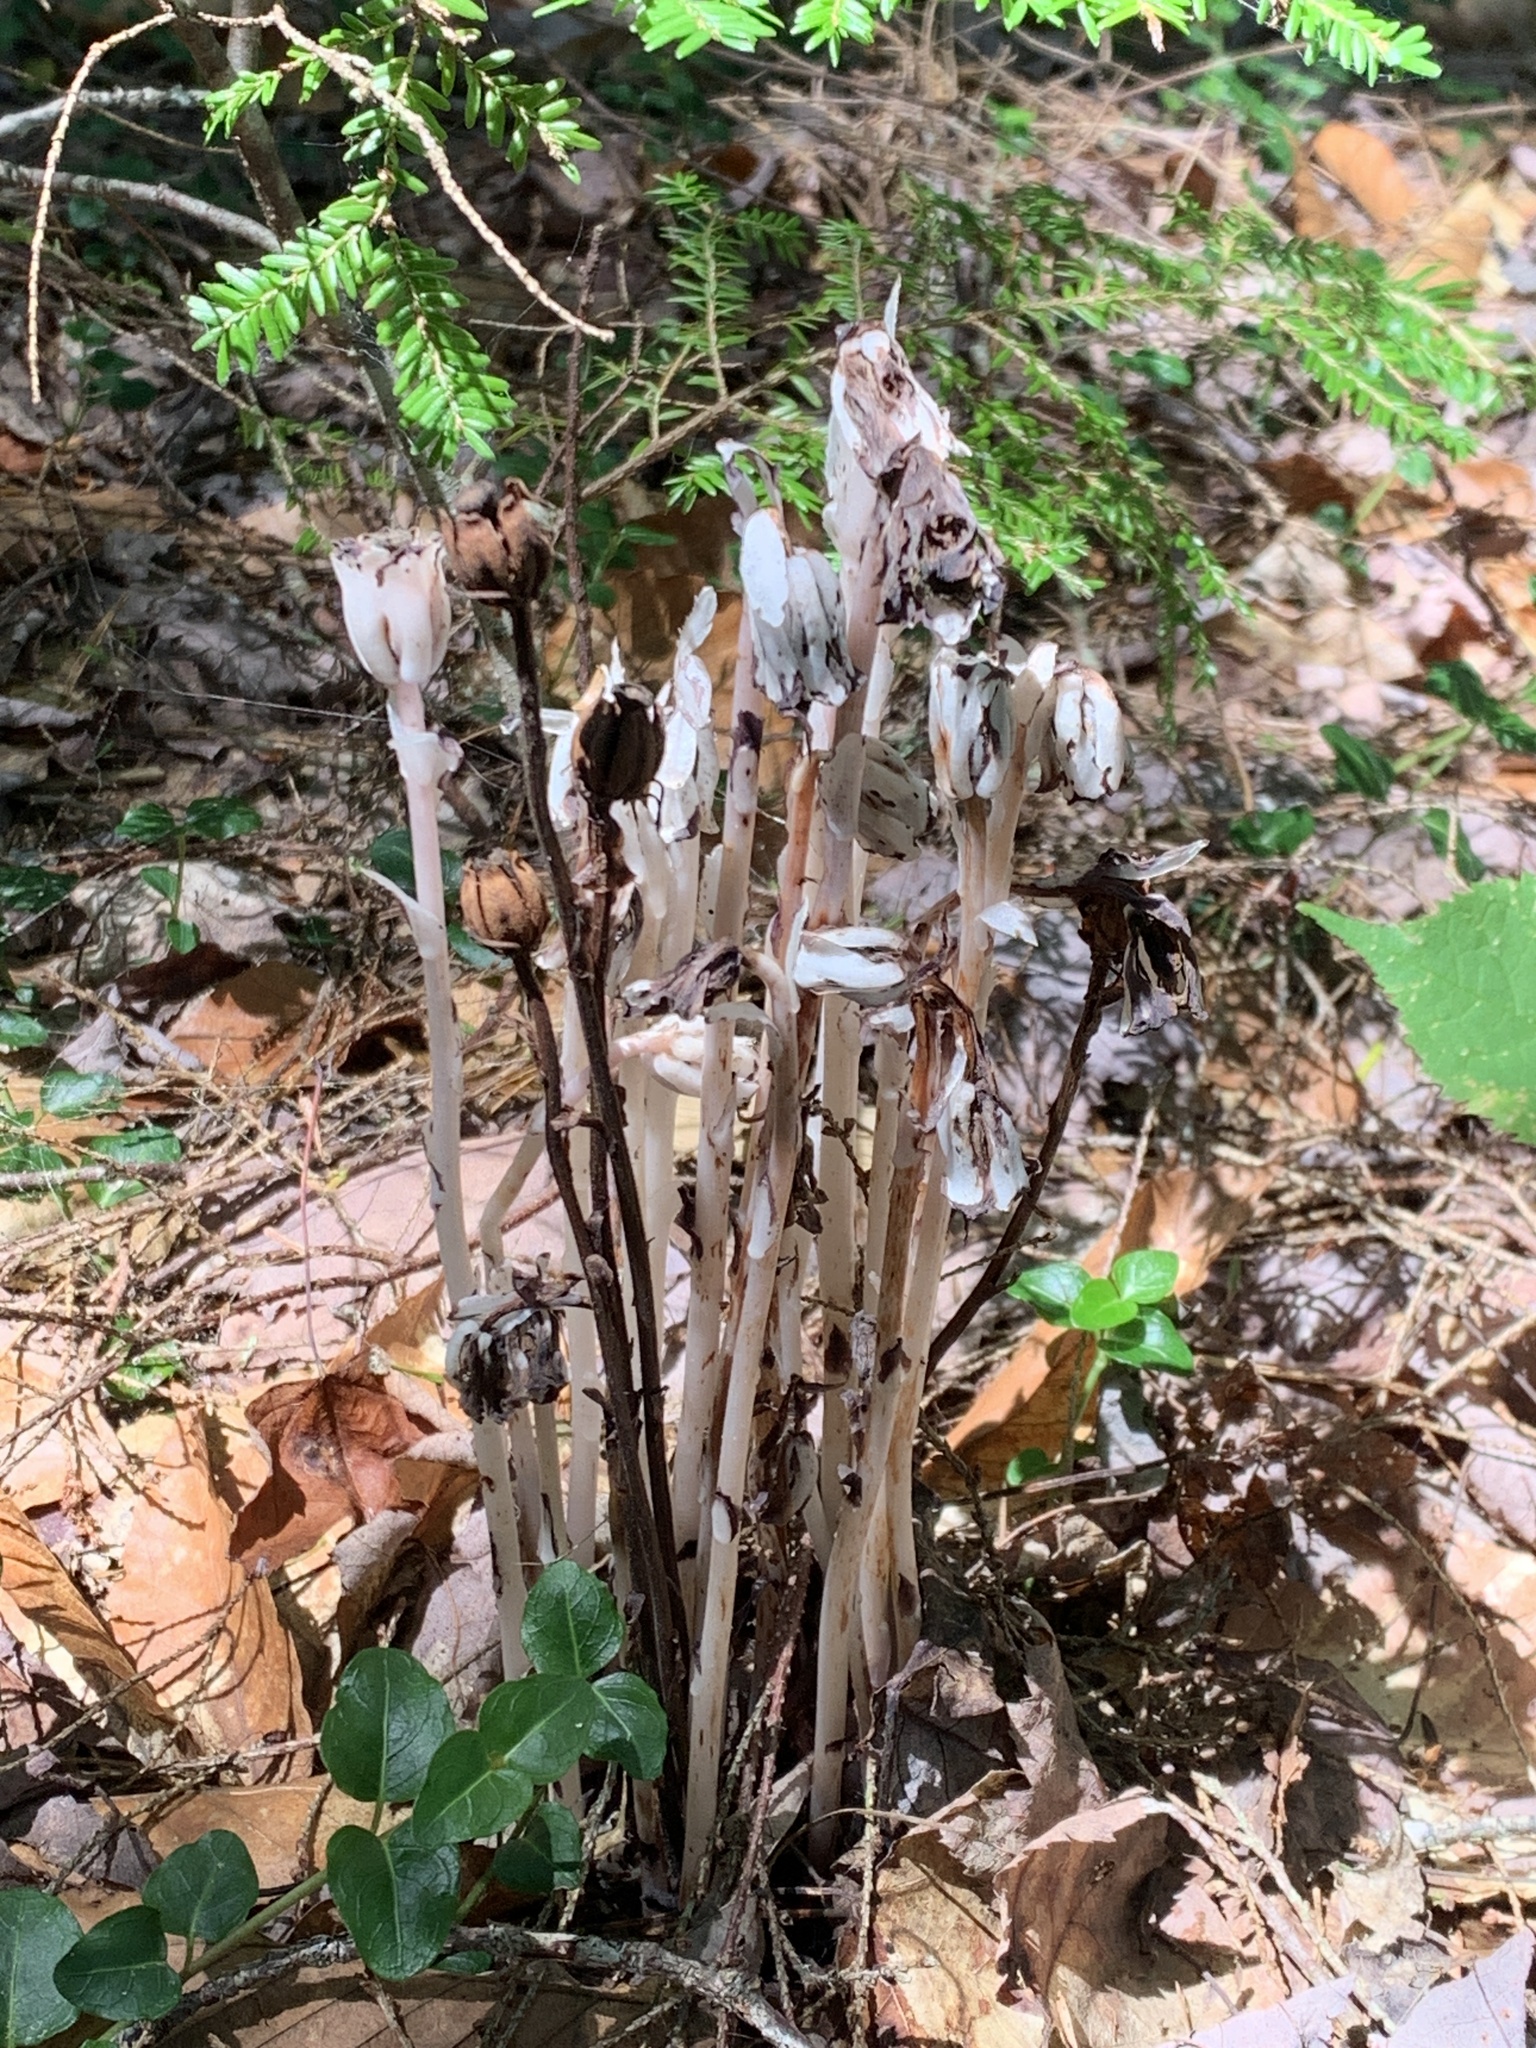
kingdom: Plantae
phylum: Tracheophyta
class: Magnoliopsida
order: Ericales
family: Ericaceae
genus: Monotropa
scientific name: Monotropa uniflora
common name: Convulsion root
